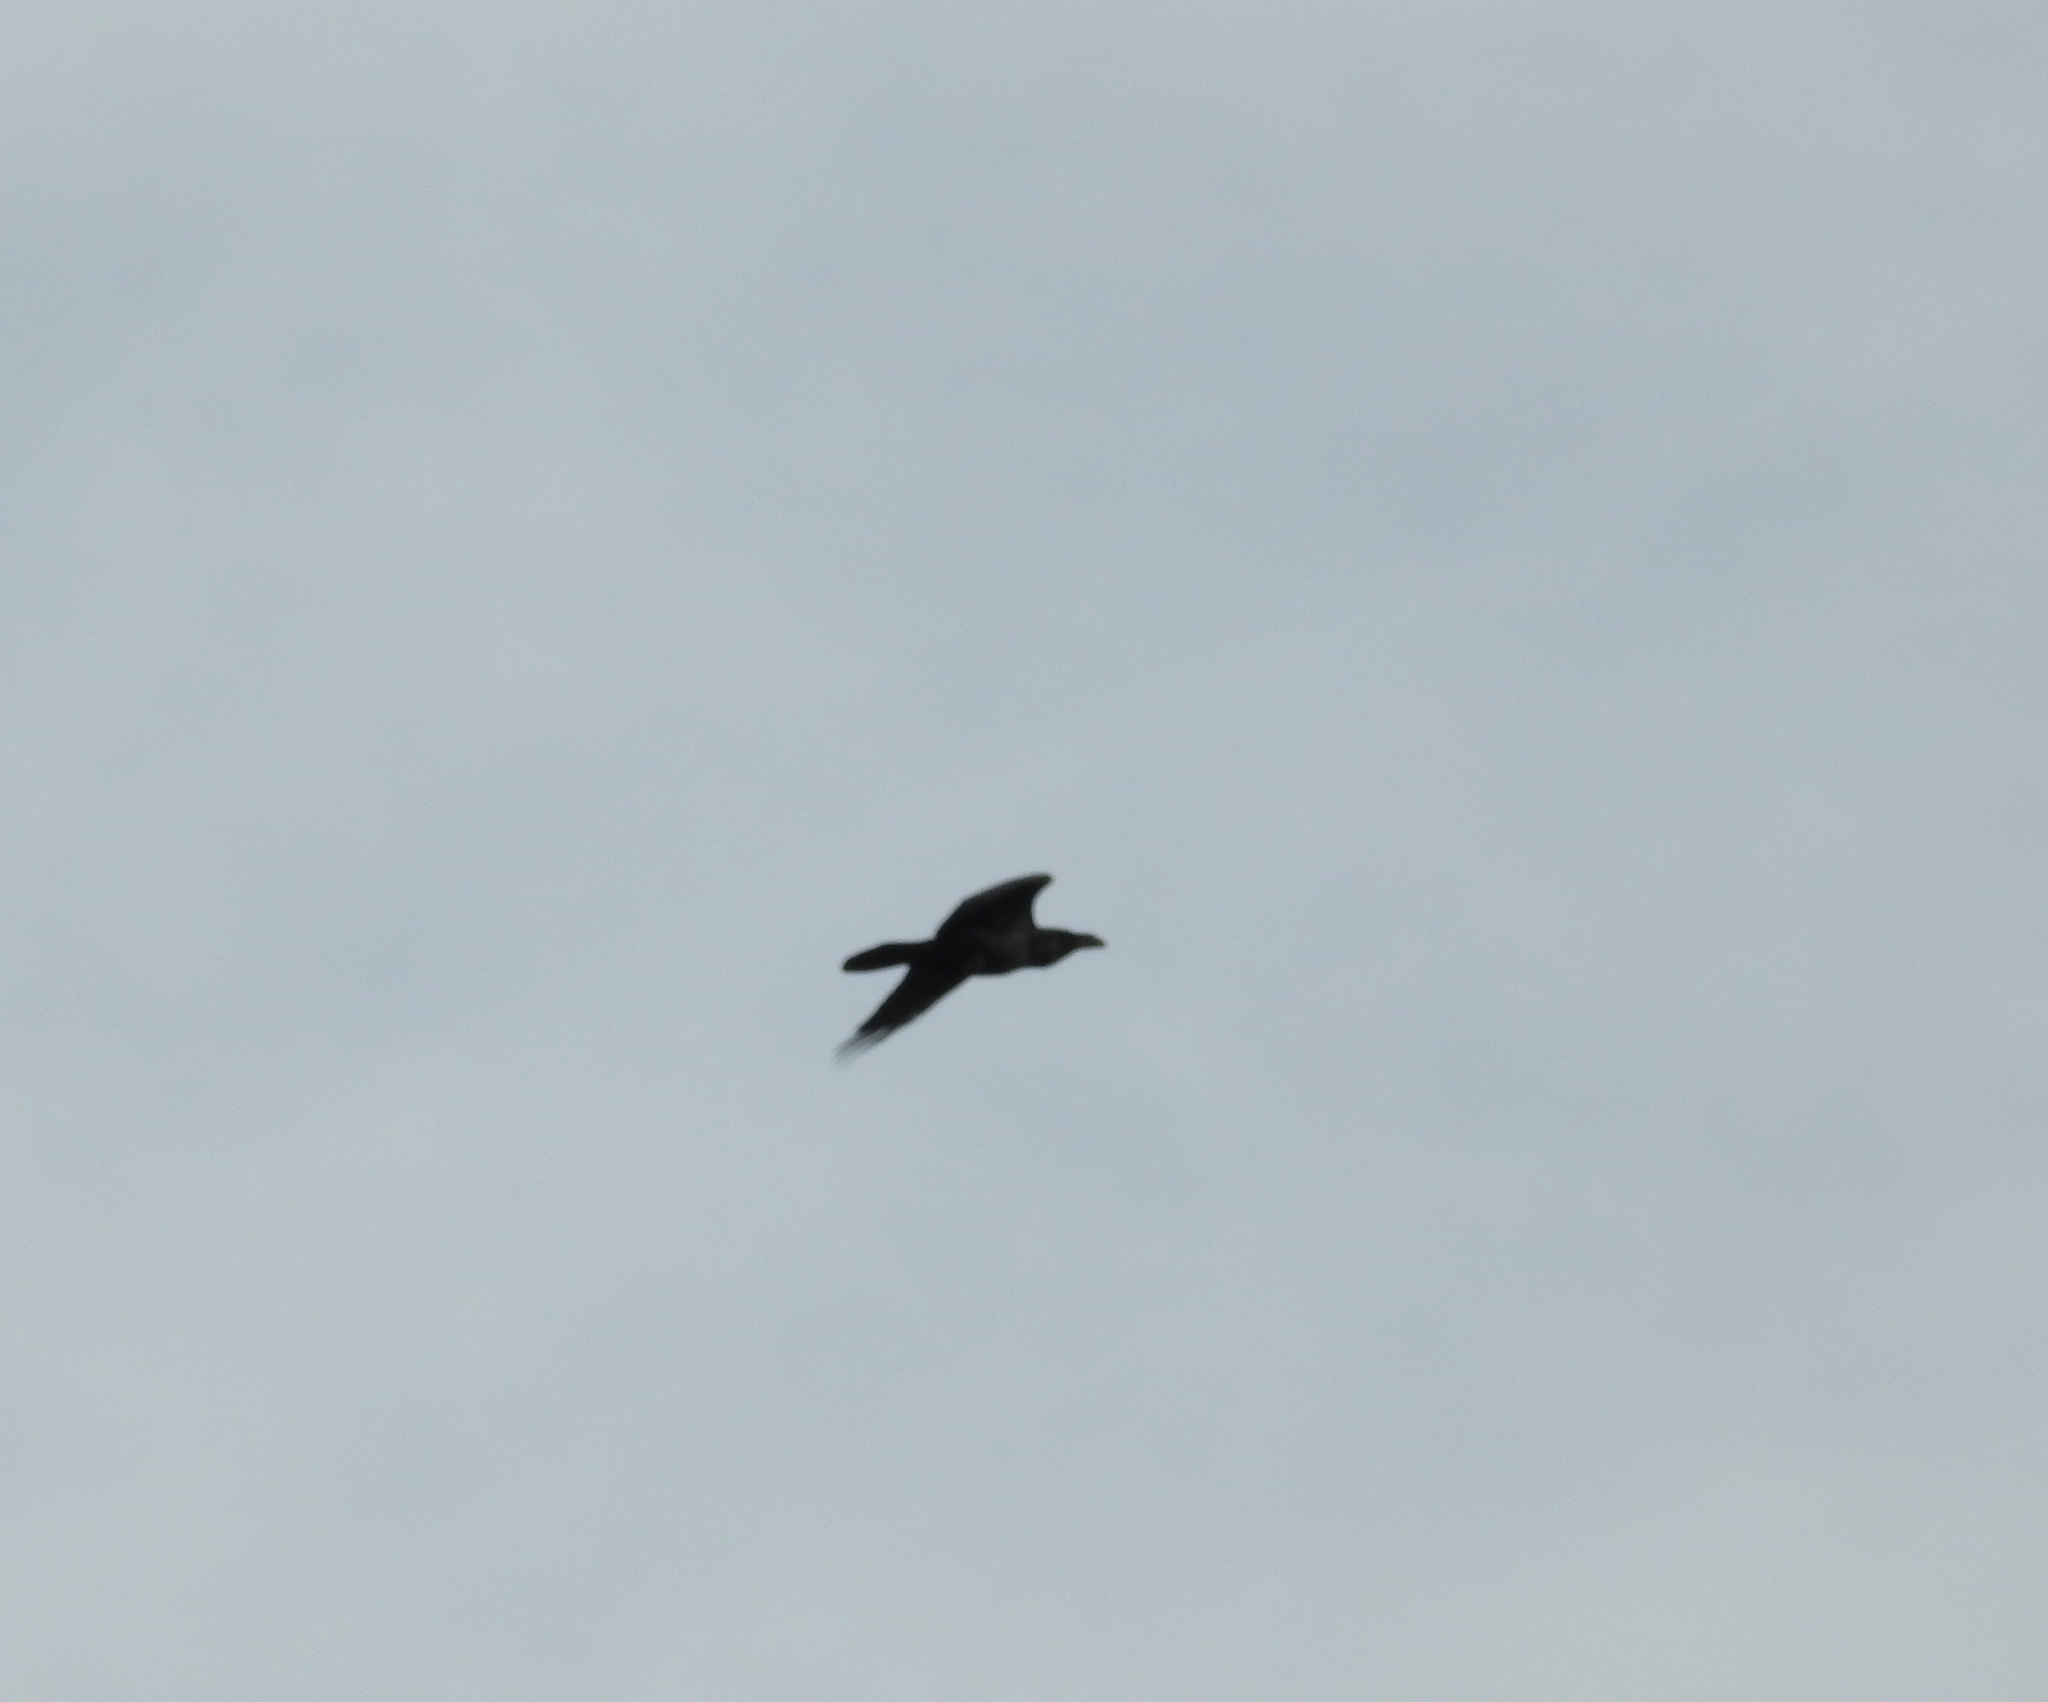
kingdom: Animalia
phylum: Chordata
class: Aves
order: Passeriformes
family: Corvidae
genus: Corvus
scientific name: Corvus corax
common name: Common raven
